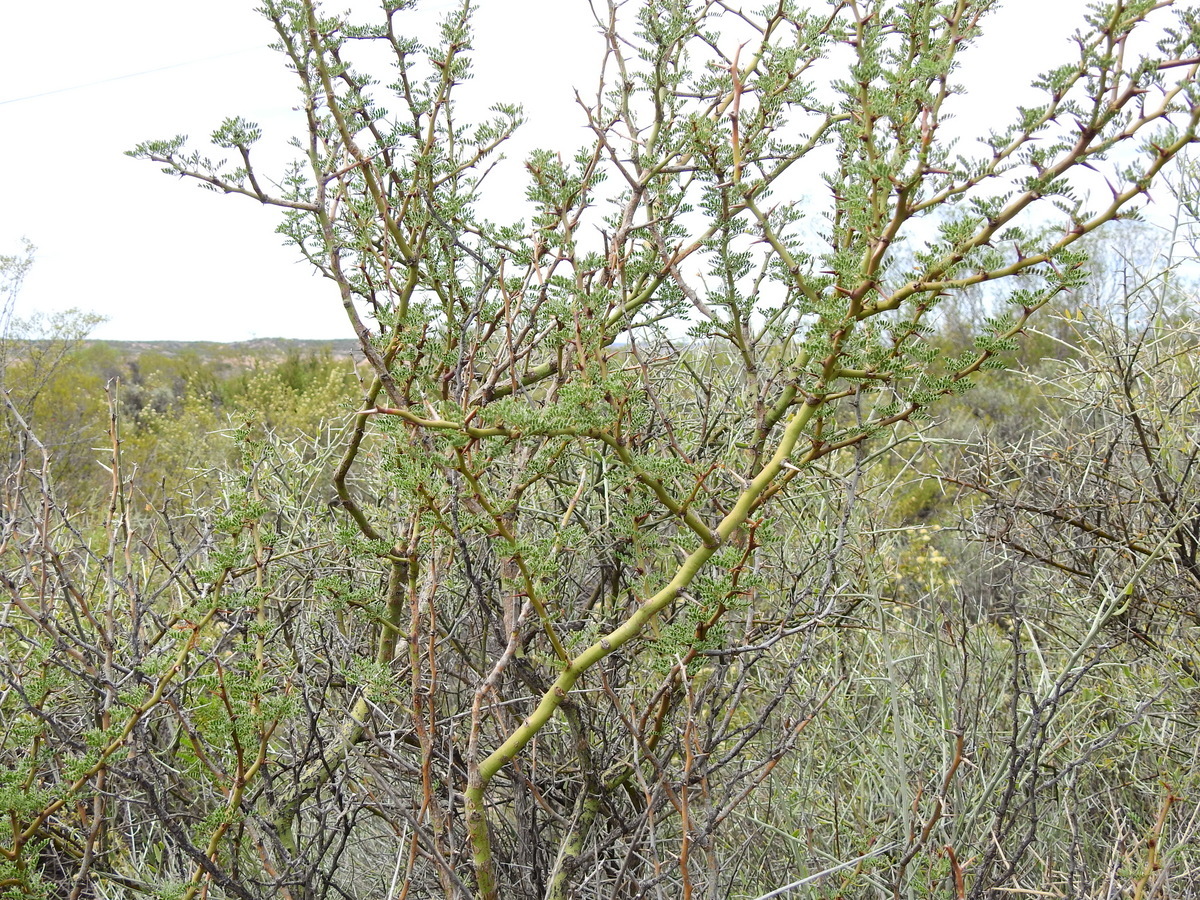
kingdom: Plantae
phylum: Tracheophyta
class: Magnoliopsida
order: Fabales
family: Fabaceae
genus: Parkinsonia
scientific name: Parkinsonia praecox
